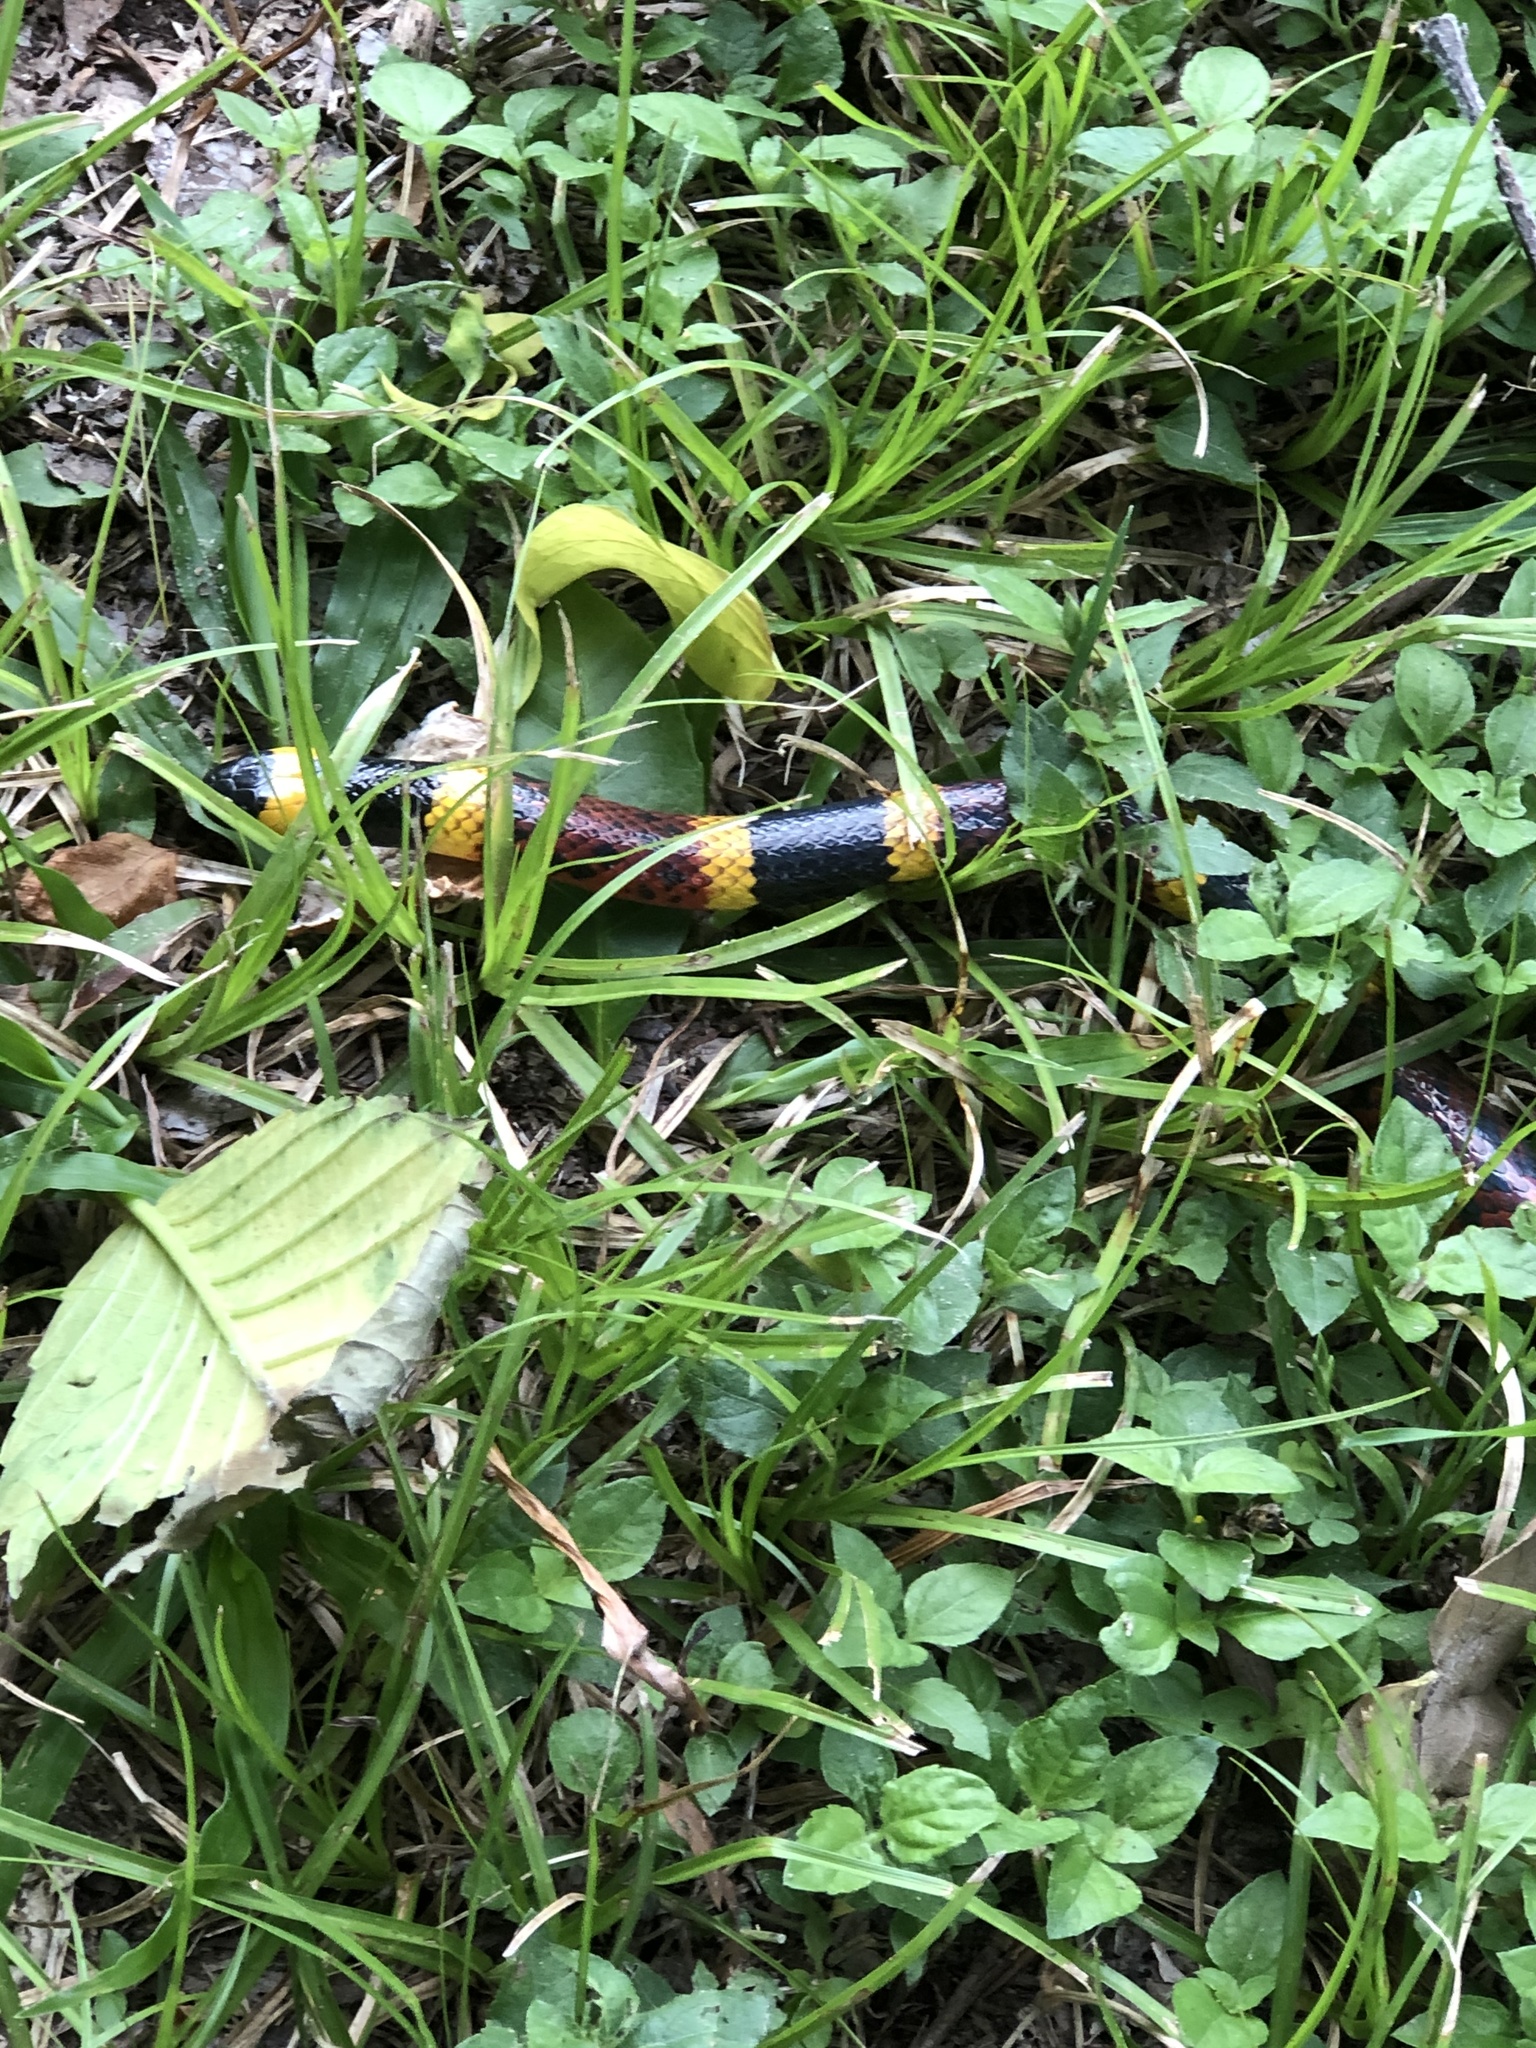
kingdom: Animalia
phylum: Chordata
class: Squamata
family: Elapidae
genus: Micrurus
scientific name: Micrurus tener
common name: Texas coral snake
